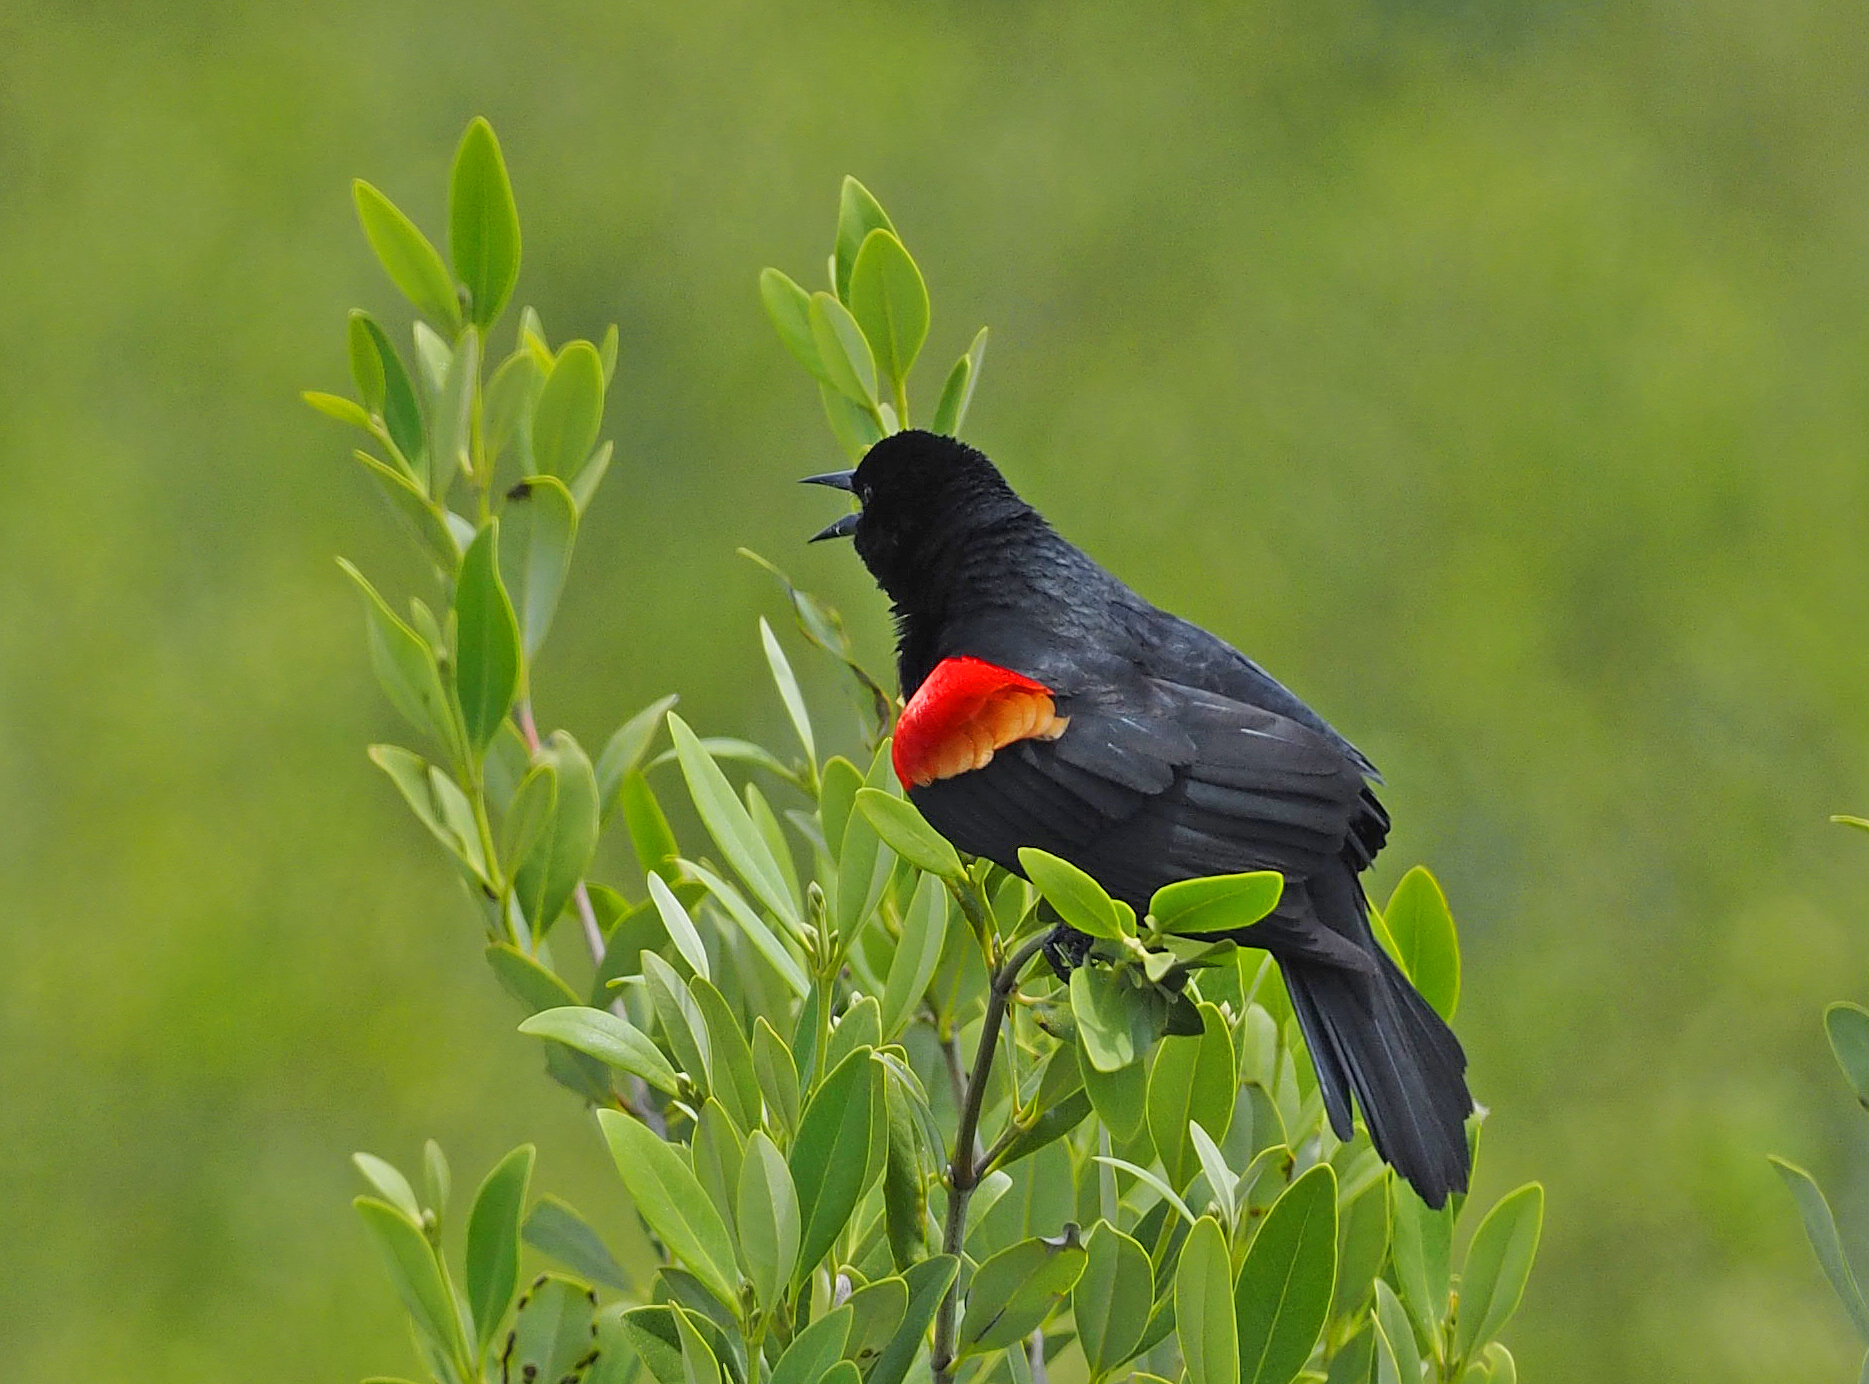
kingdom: Animalia
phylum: Chordata
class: Aves
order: Passeriformes
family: Icteridae
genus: Agelaius
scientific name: Agelaius phoeniceus
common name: Red-winged blackbird
